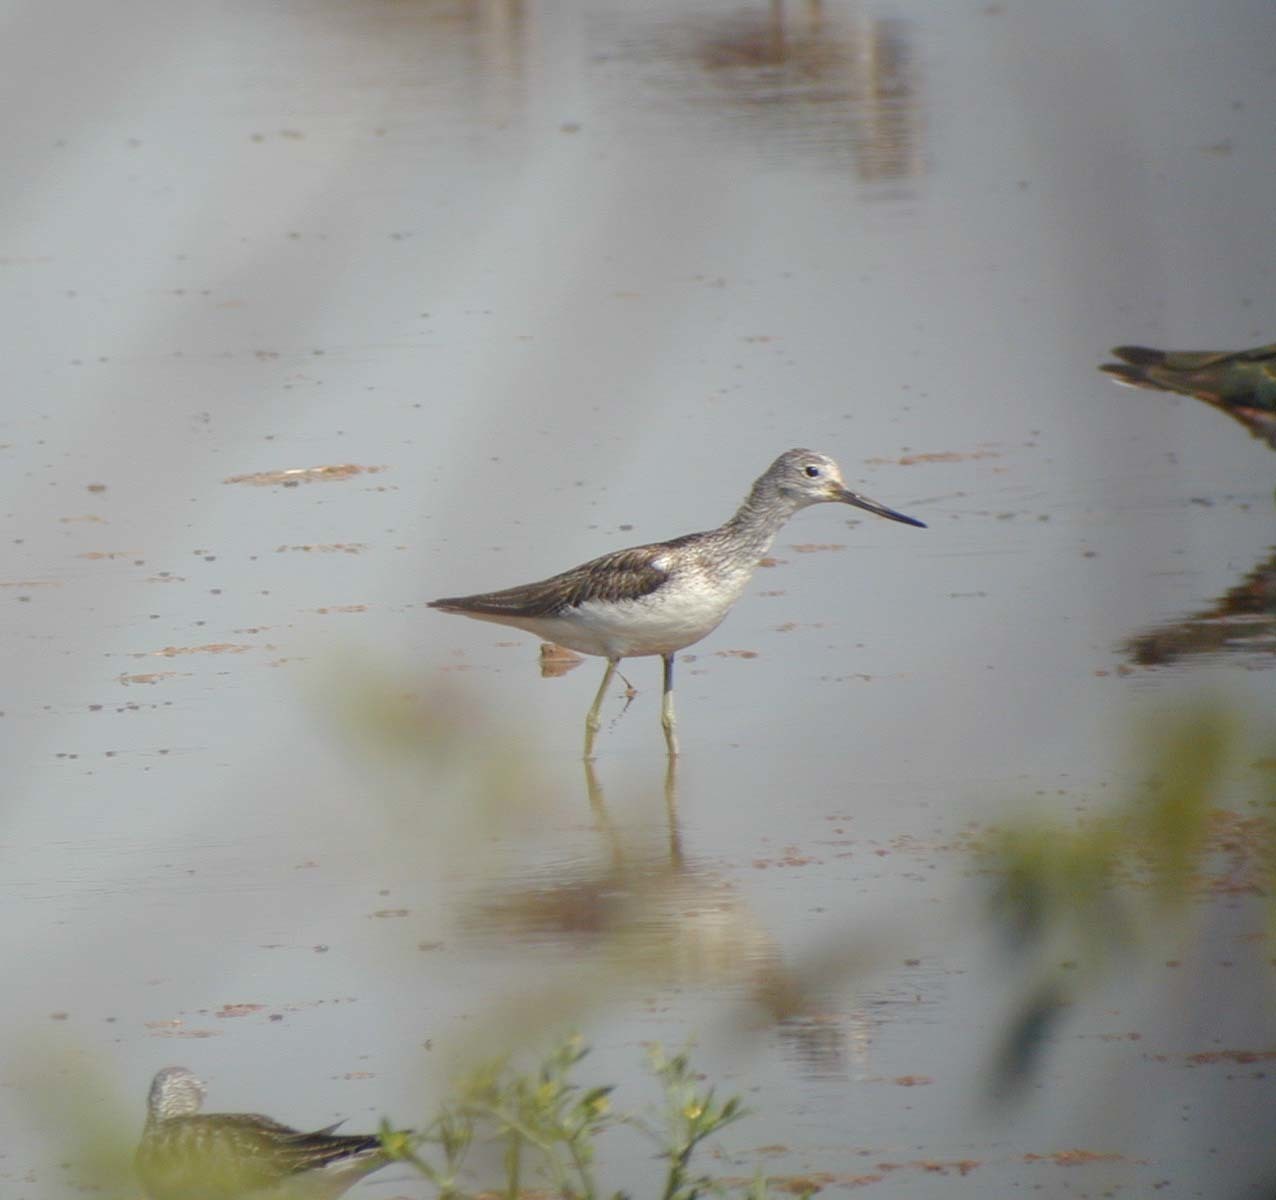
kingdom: Animalia
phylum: Chordata
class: Aves
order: Charadriiformes
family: Scolopacidae
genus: Tringa
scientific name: Tringa nebularia
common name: Common greenshank
